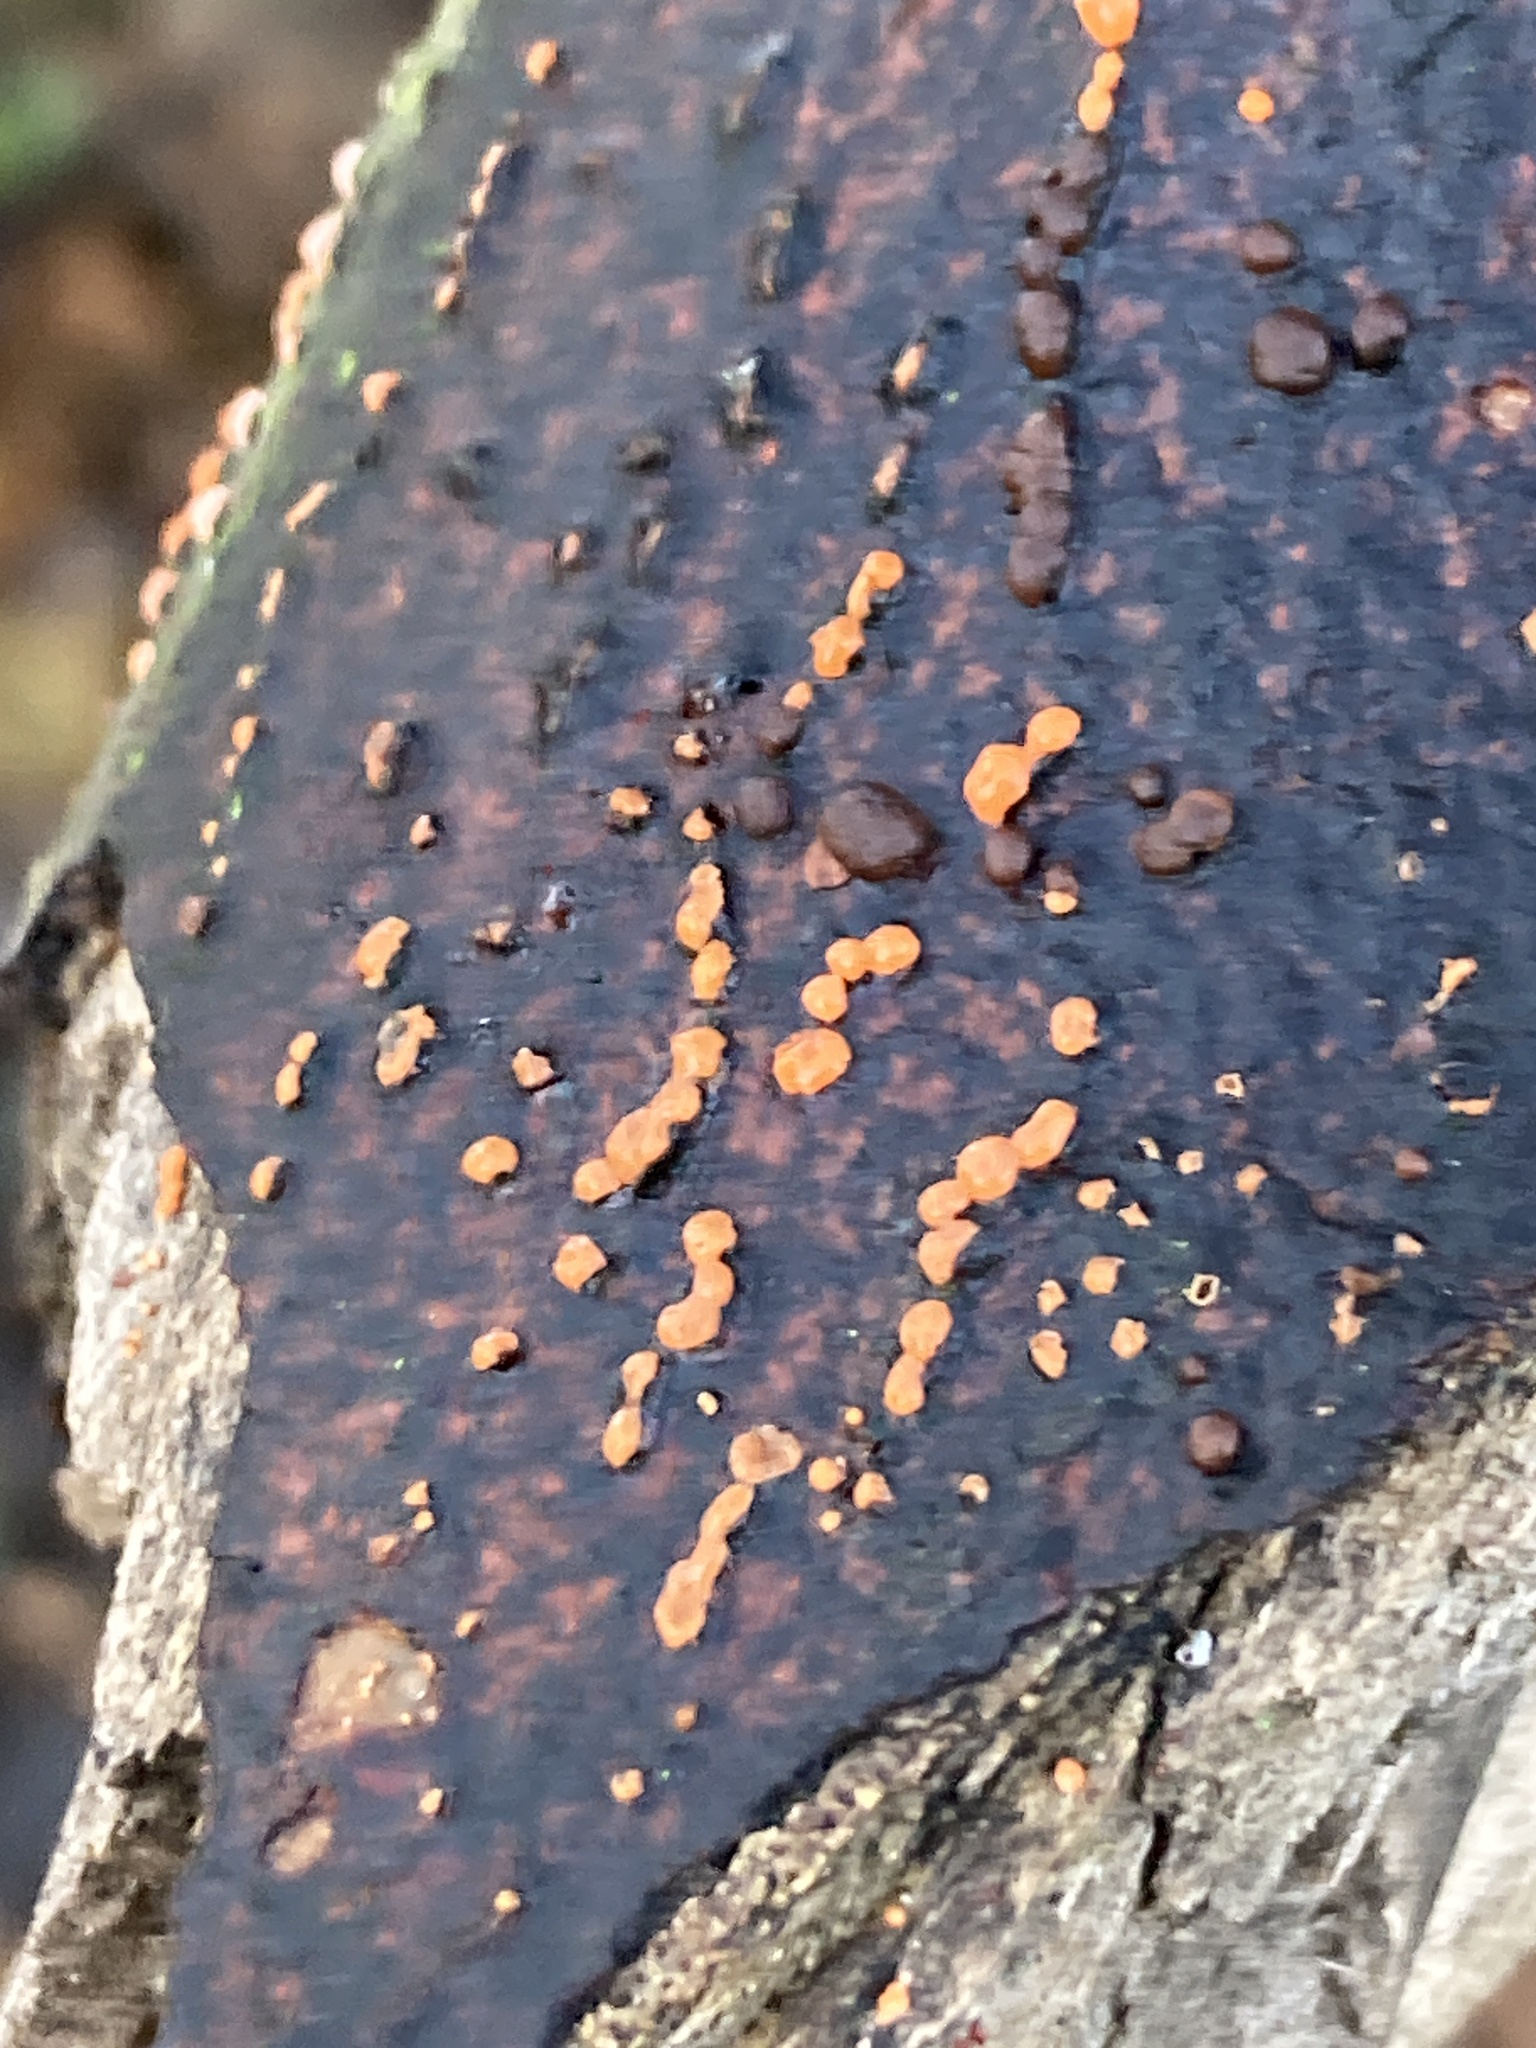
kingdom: Fungi
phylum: Ascomycota
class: Sordariomycetes
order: Hypocreales
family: Nectriaceae
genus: Nectria
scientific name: Nectria cinnabarina
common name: Coral spot
